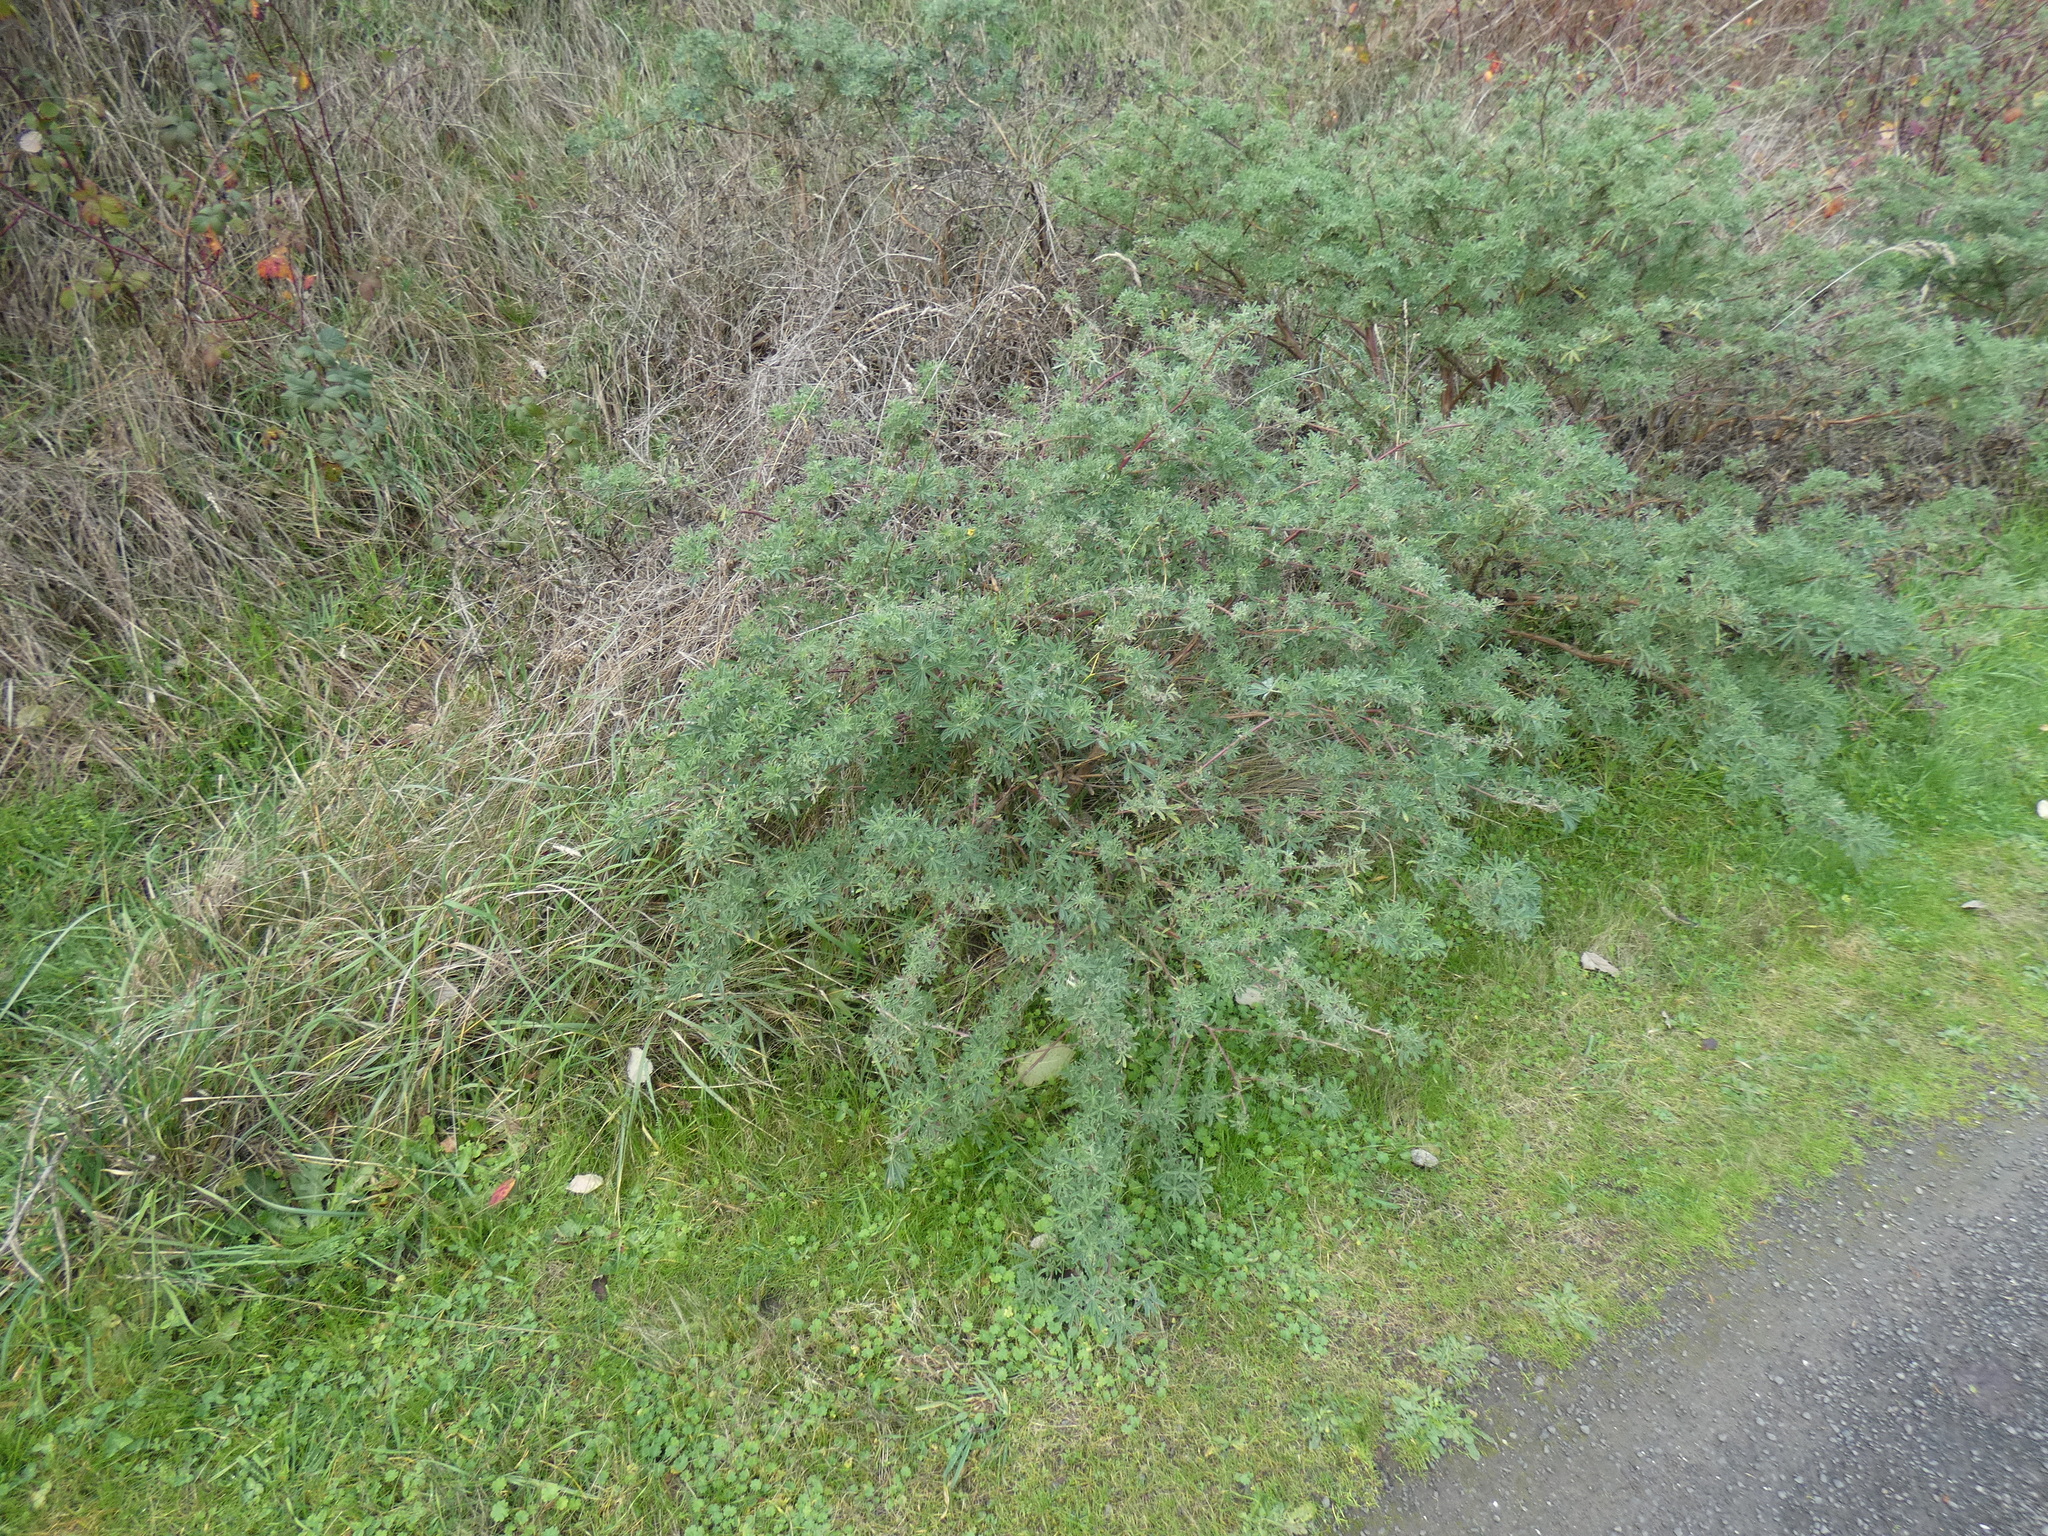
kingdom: Plantae
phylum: Tracheophyta
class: Magnoliopsida
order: Fabales
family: Fabaceae
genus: Lupinus
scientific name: Lupinus arboreus
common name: Yellow bush lupine
